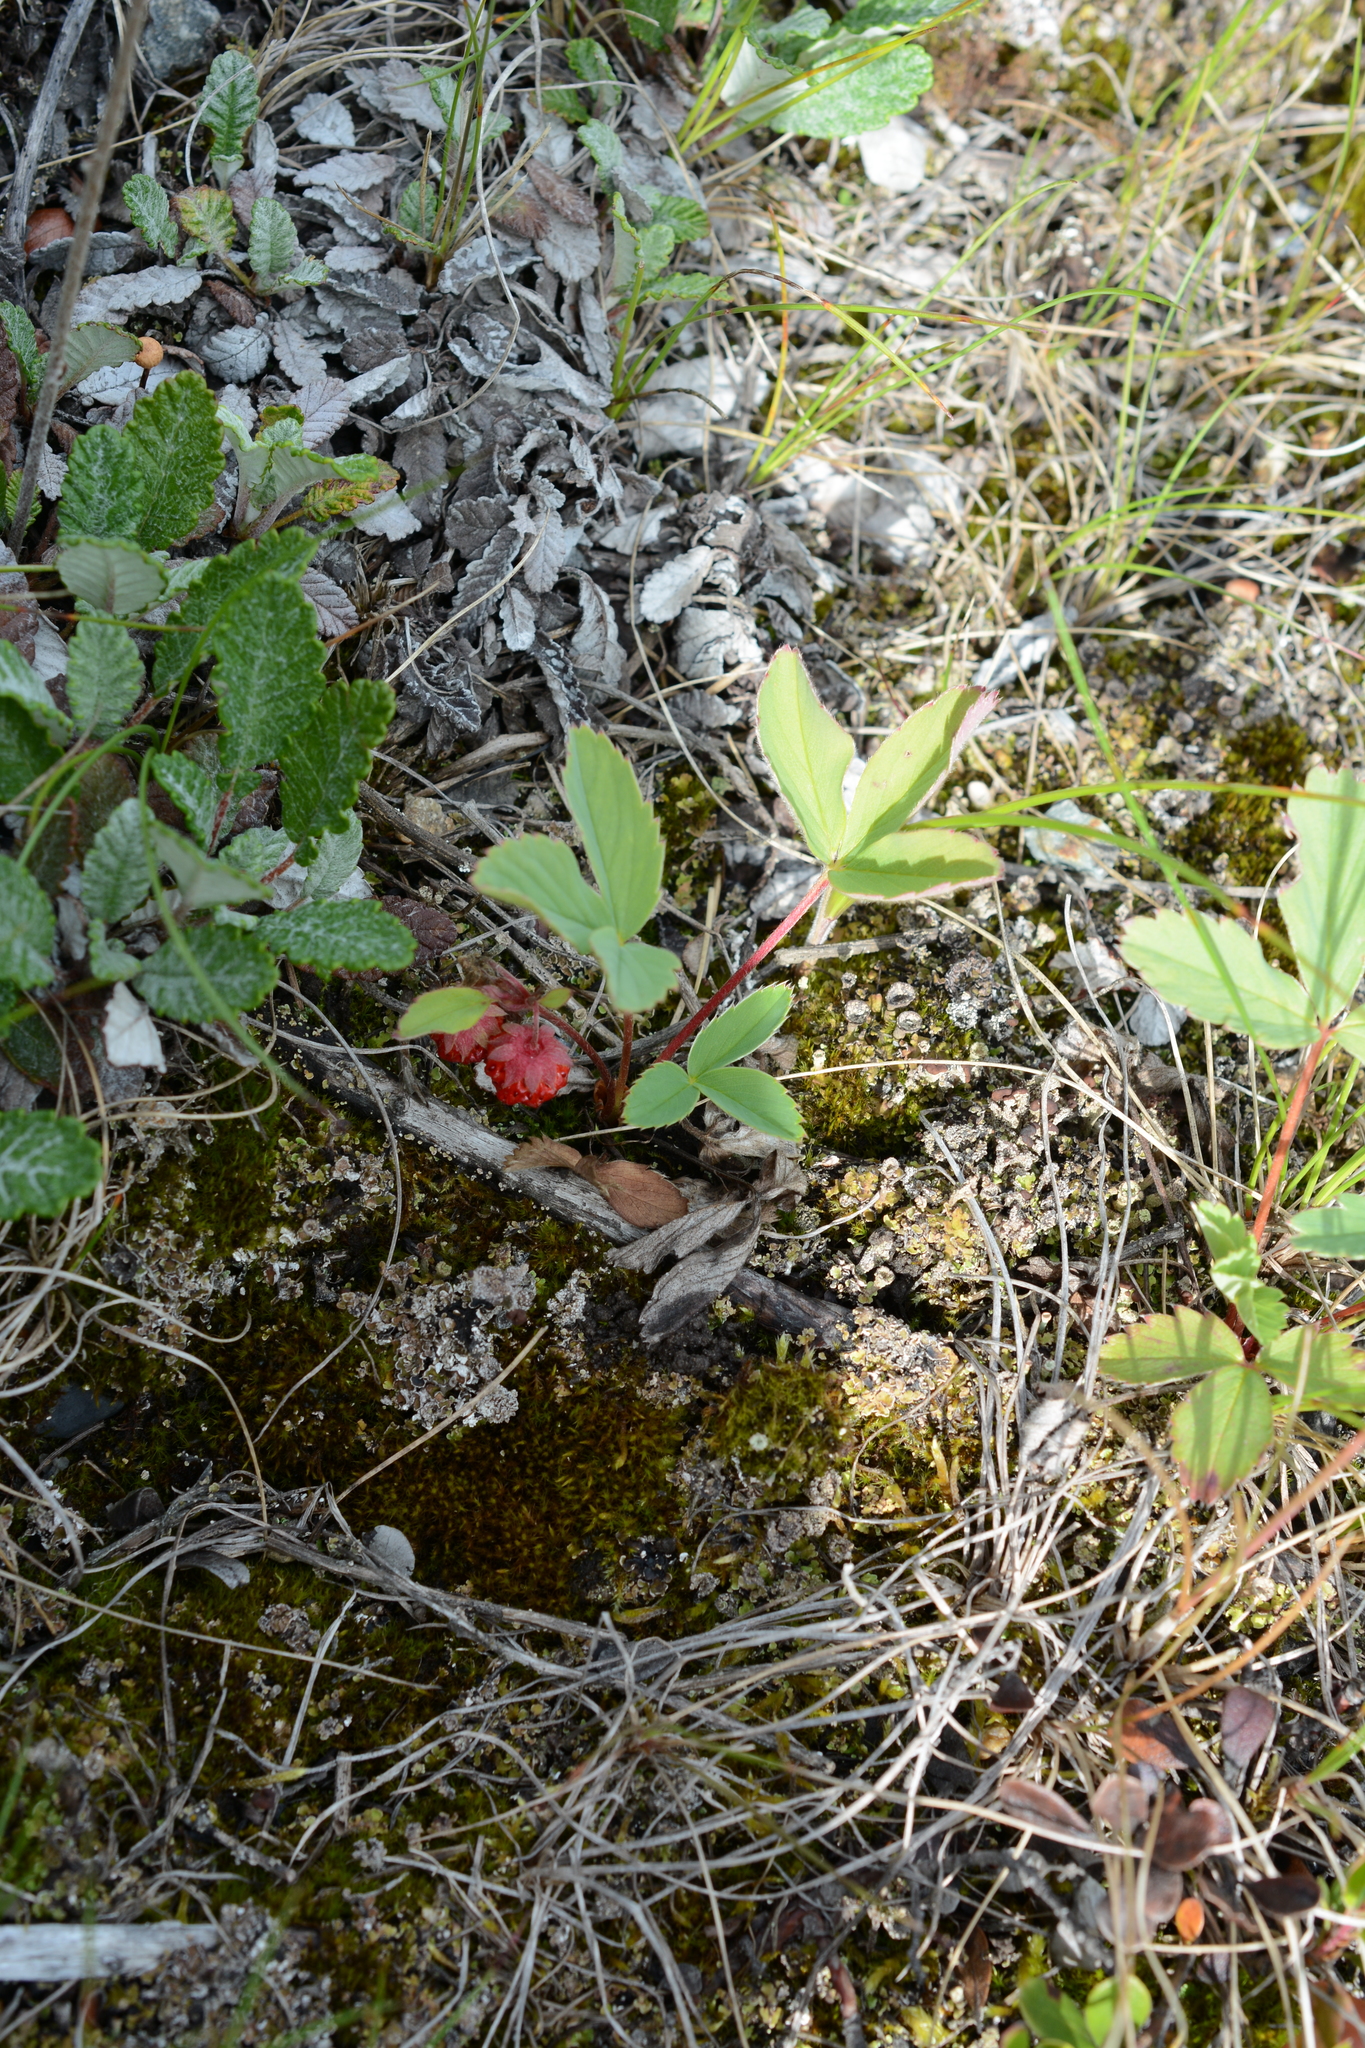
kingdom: Plantae
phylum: Tracheophyta
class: Magnoliopsida
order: Rosales
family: Rosaceae
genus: Fragaria
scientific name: Fragaria virginiana
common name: Thickleaved wild strawberry
